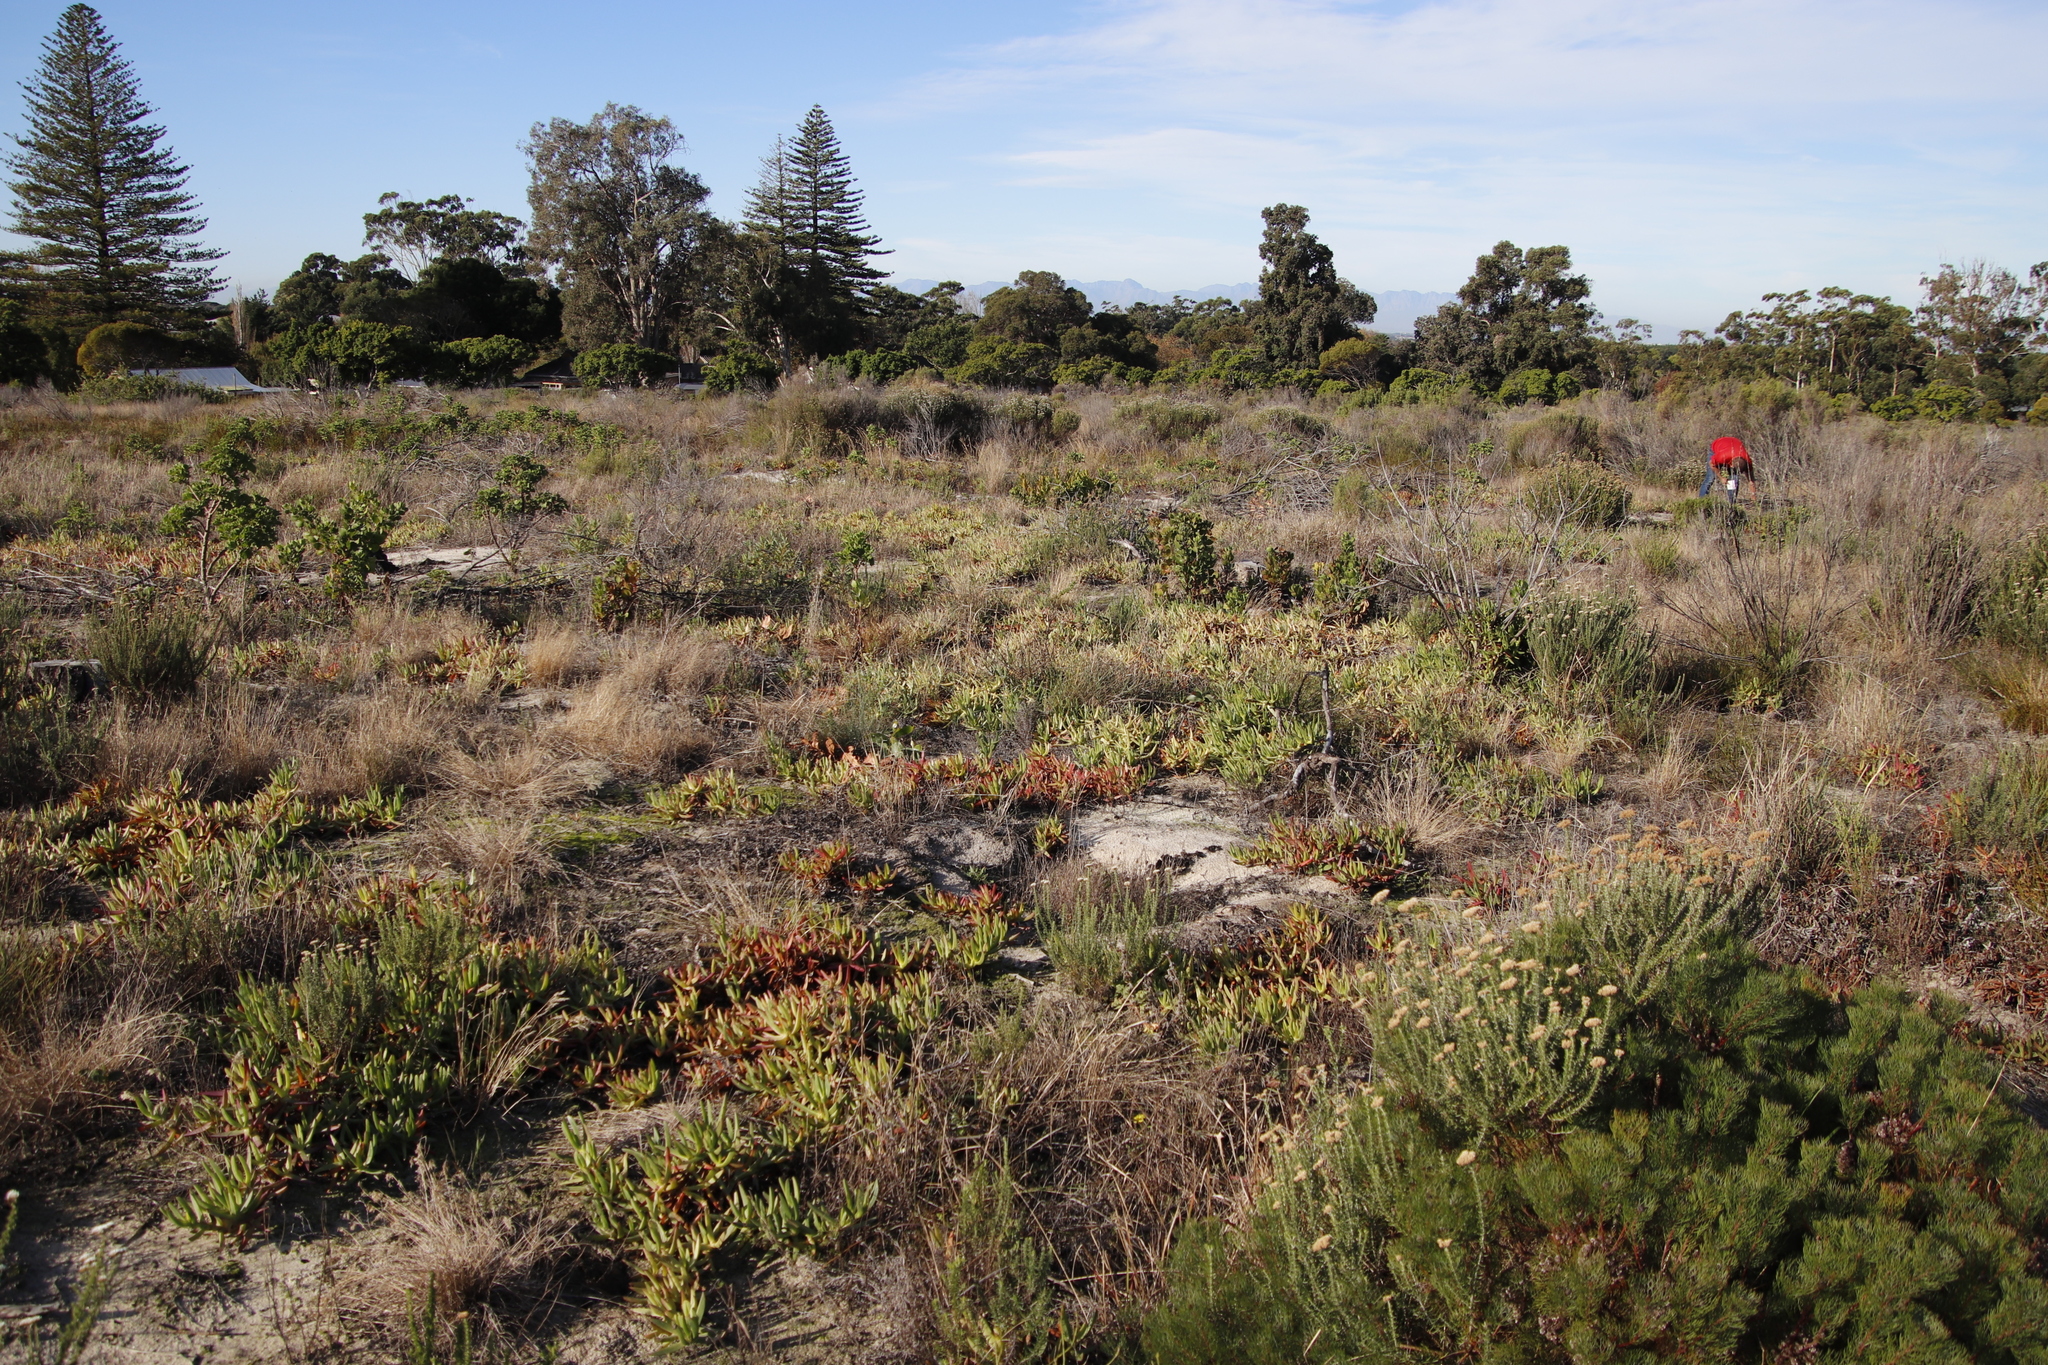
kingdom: Plantae
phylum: Tracheophyta
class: Magnoliopsida
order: Caryophyllales
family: Aizoaceae
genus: Carpobrotus
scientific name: Carpobrotus edulis
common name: Hottentot-fig
